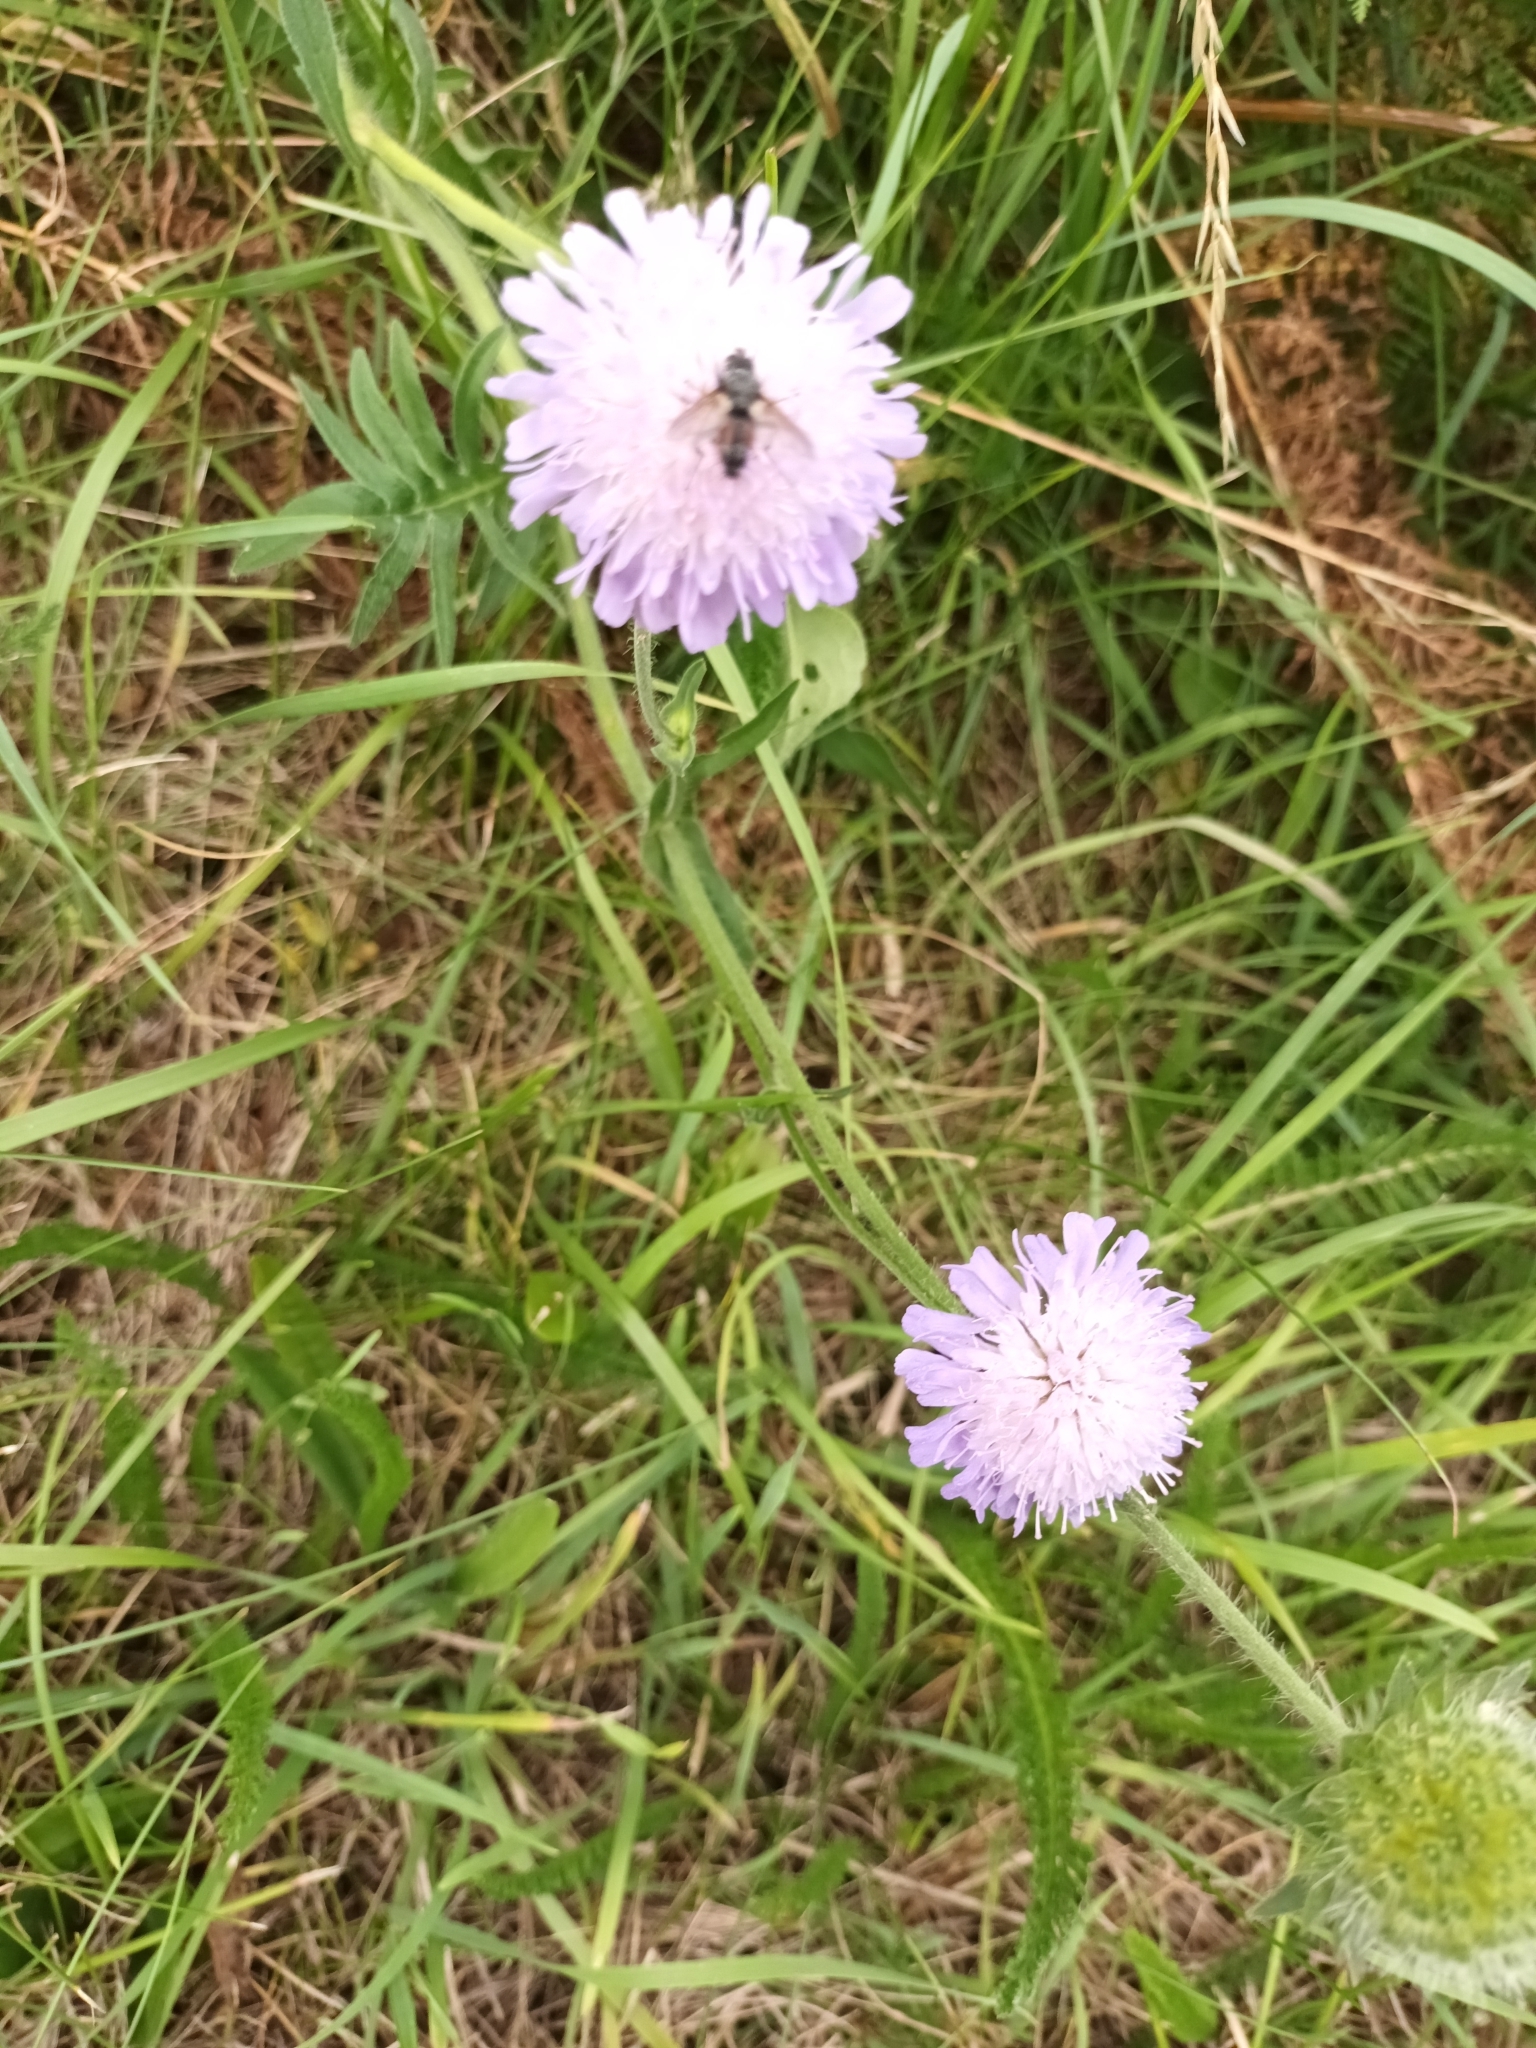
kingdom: Plantae
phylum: Tracheophyta
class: Magnoliopsida
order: Dipsacales
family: Caprifoliaceae
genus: Knautia
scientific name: Knautia arvensis
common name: Field scabiosa
